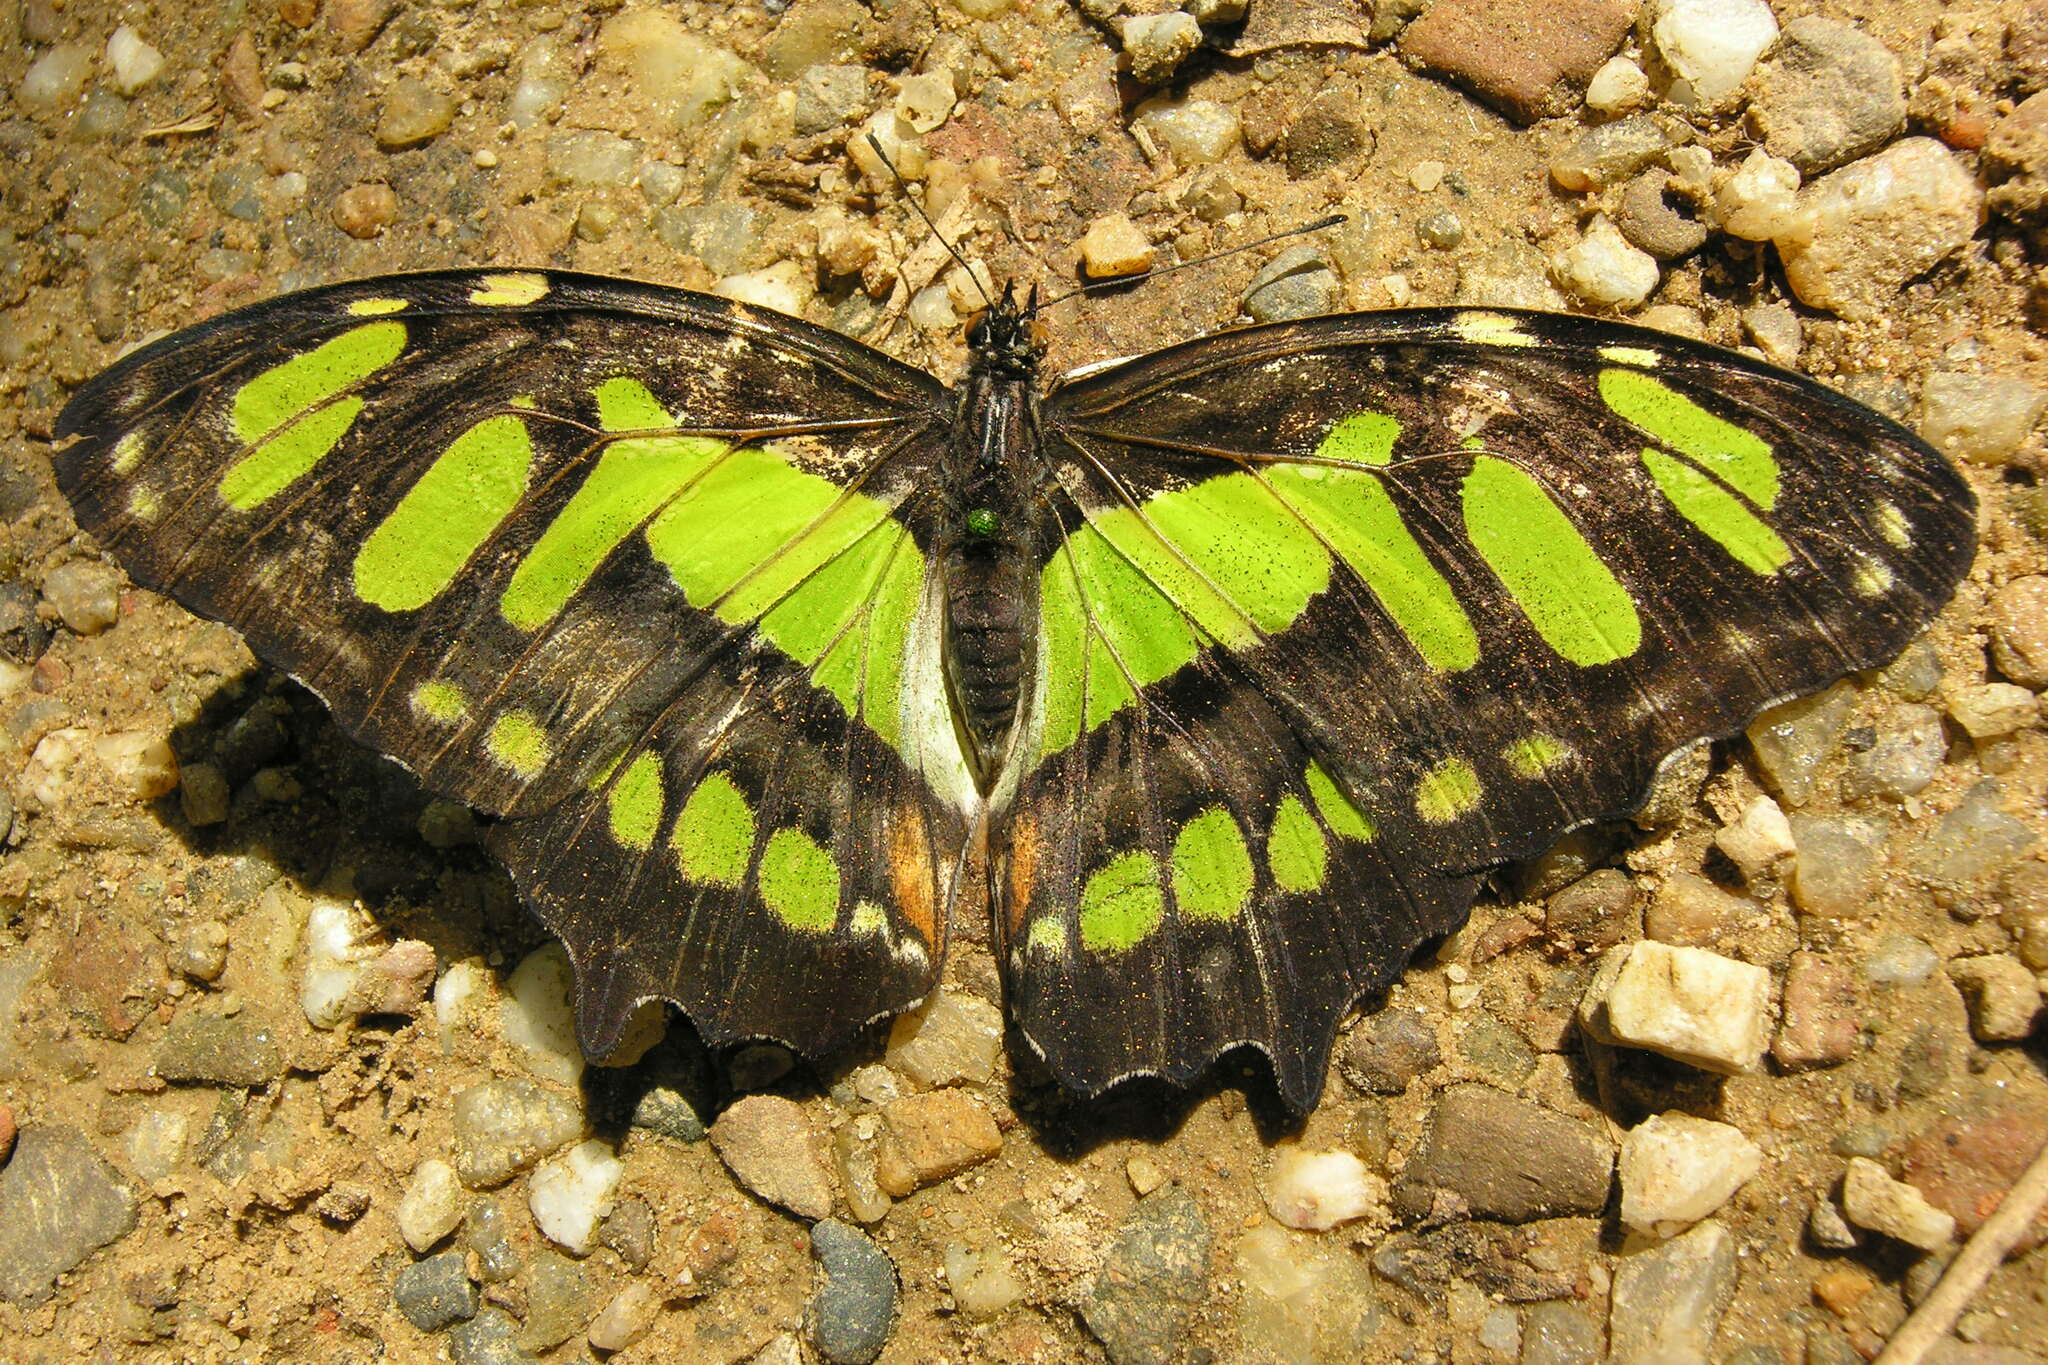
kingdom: Animalia
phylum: Arthropoda
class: Insecta
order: Lepidoptera
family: Nymphalidae
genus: Siproeta
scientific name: Siproeta stelenes
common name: Malachite
